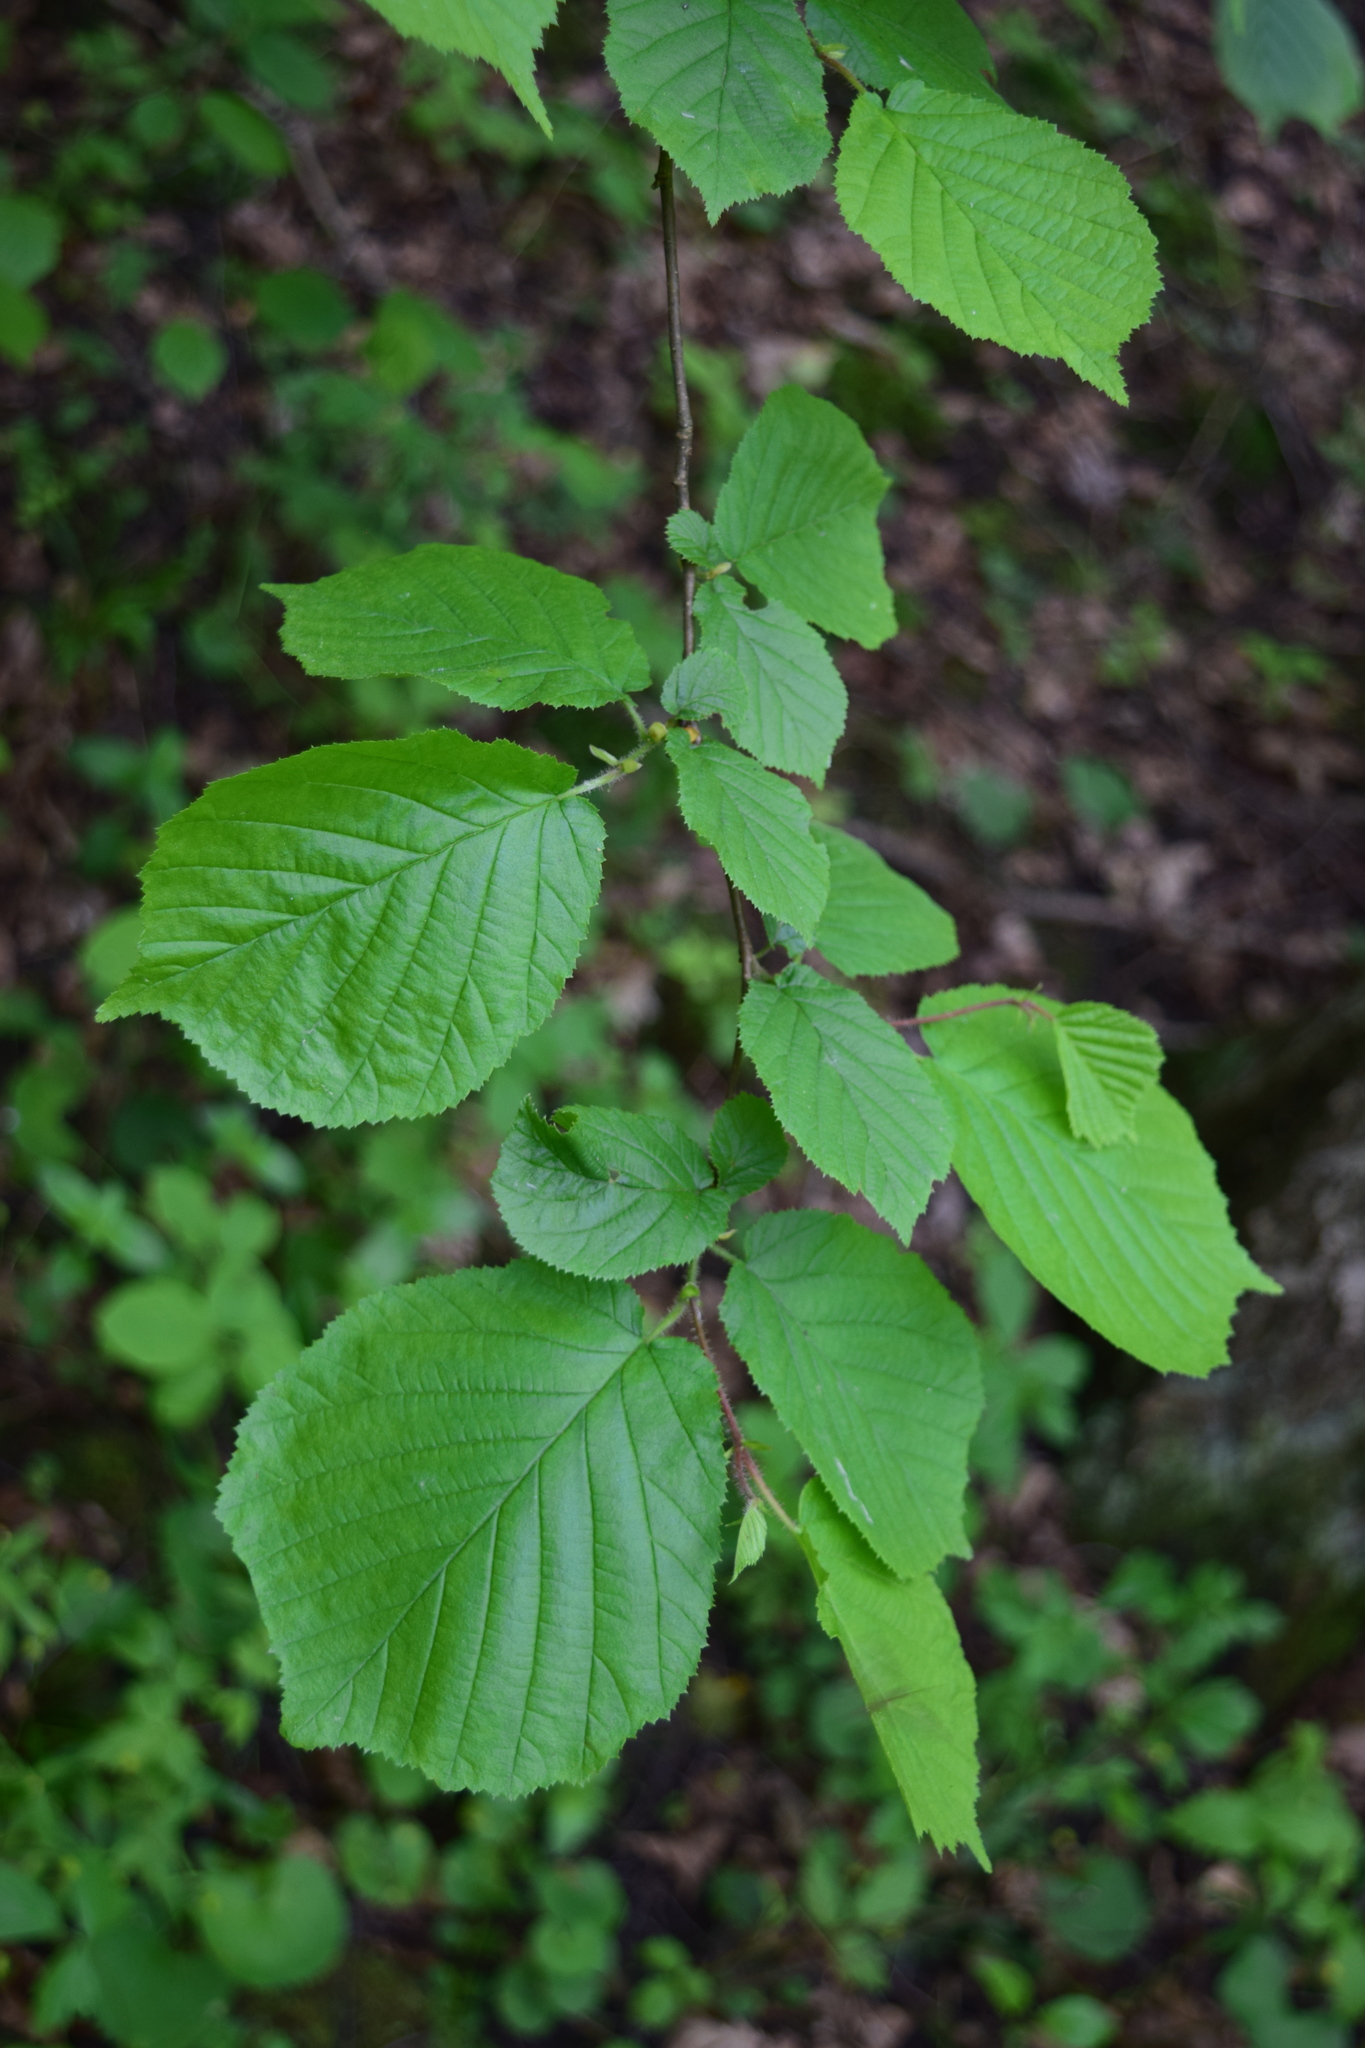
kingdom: Plantae
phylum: Tracheophyta
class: Magnoliopsida
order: Fagales
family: Betulaceae
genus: Corylus
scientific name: Corylus avellana
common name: European hazel
